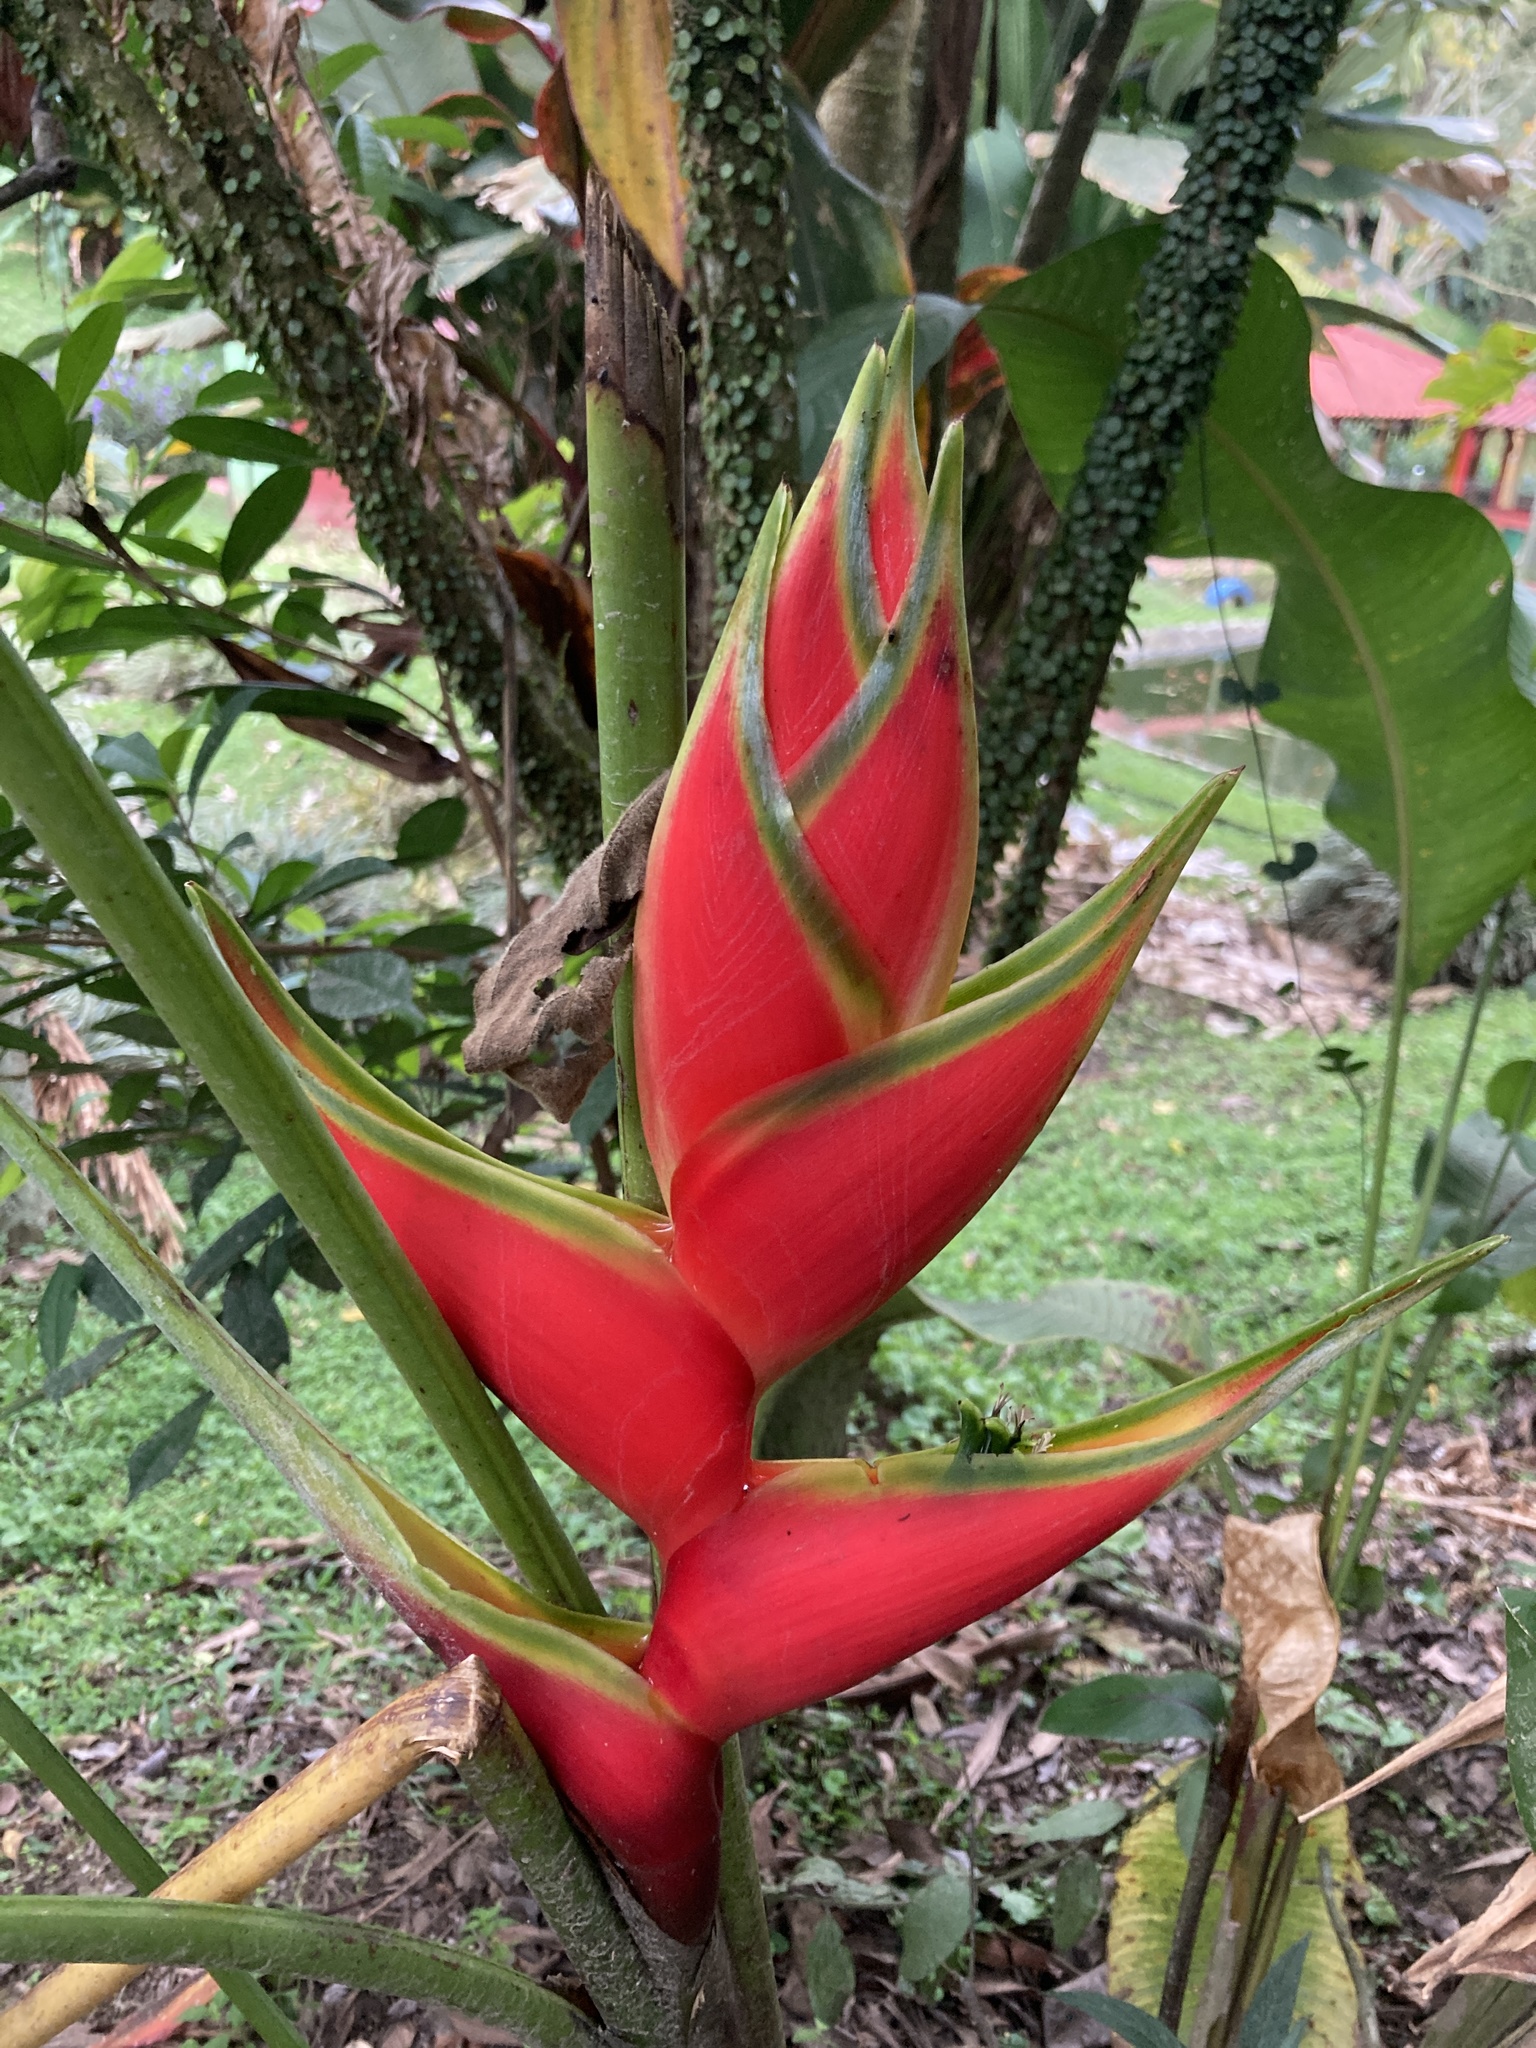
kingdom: Plantae
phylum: Tracheophyta
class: Liliopsida
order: Zingiberales
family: Heliconiaceae
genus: Heliconia
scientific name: Heliconia wagneriana
